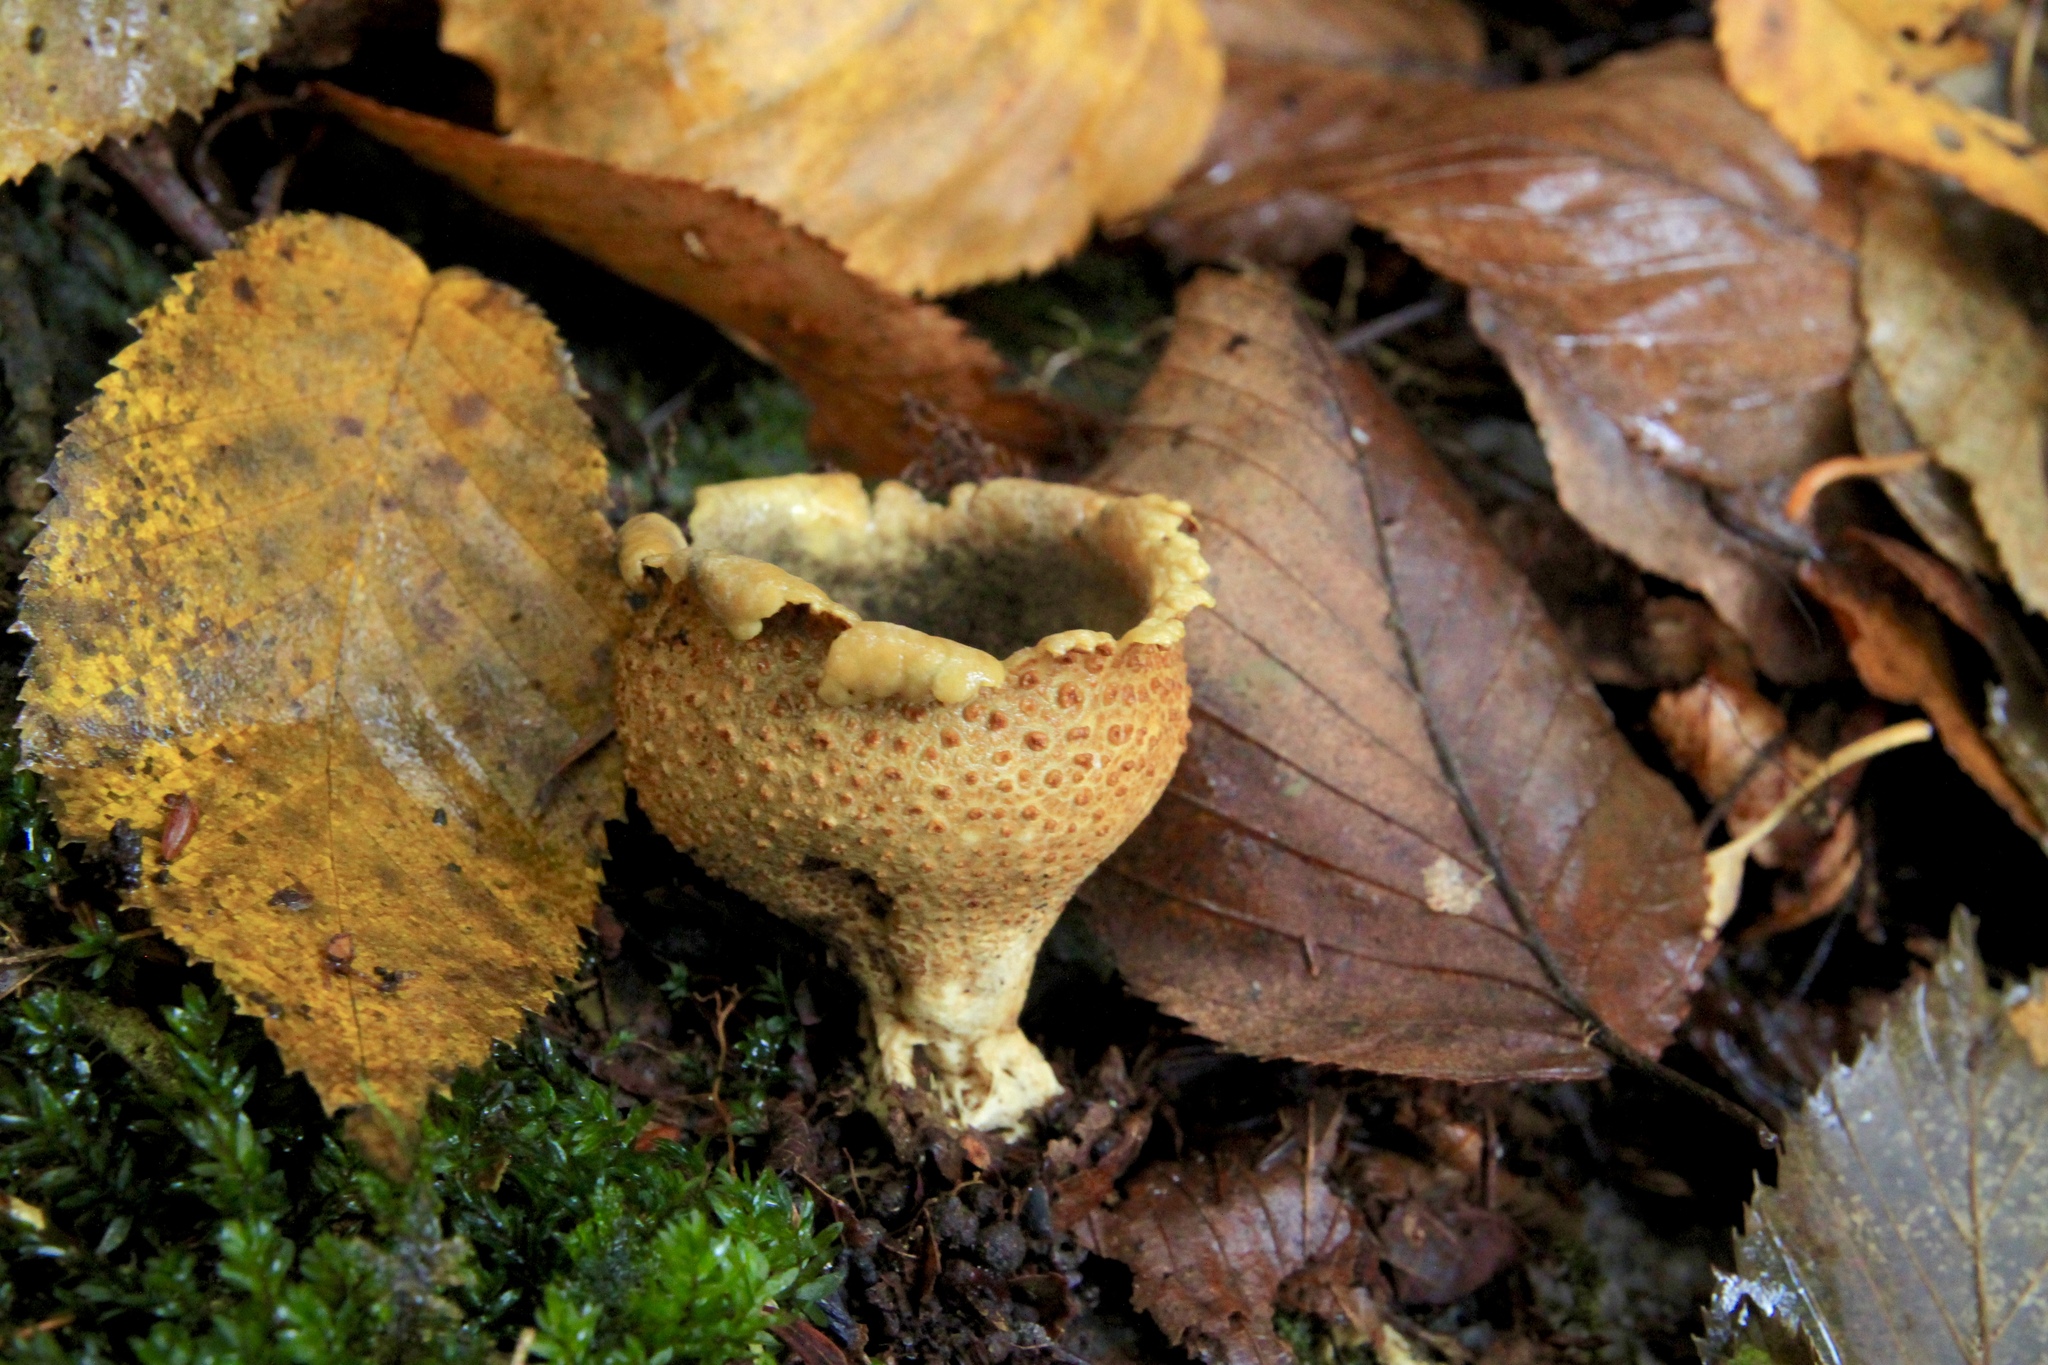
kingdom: Fungi
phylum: Basidiomycota
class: Agaricomycetes
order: Boletales
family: Sclerodermataceae
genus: Scleroderma
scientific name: Scleroderma citrinum
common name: Common earthball
